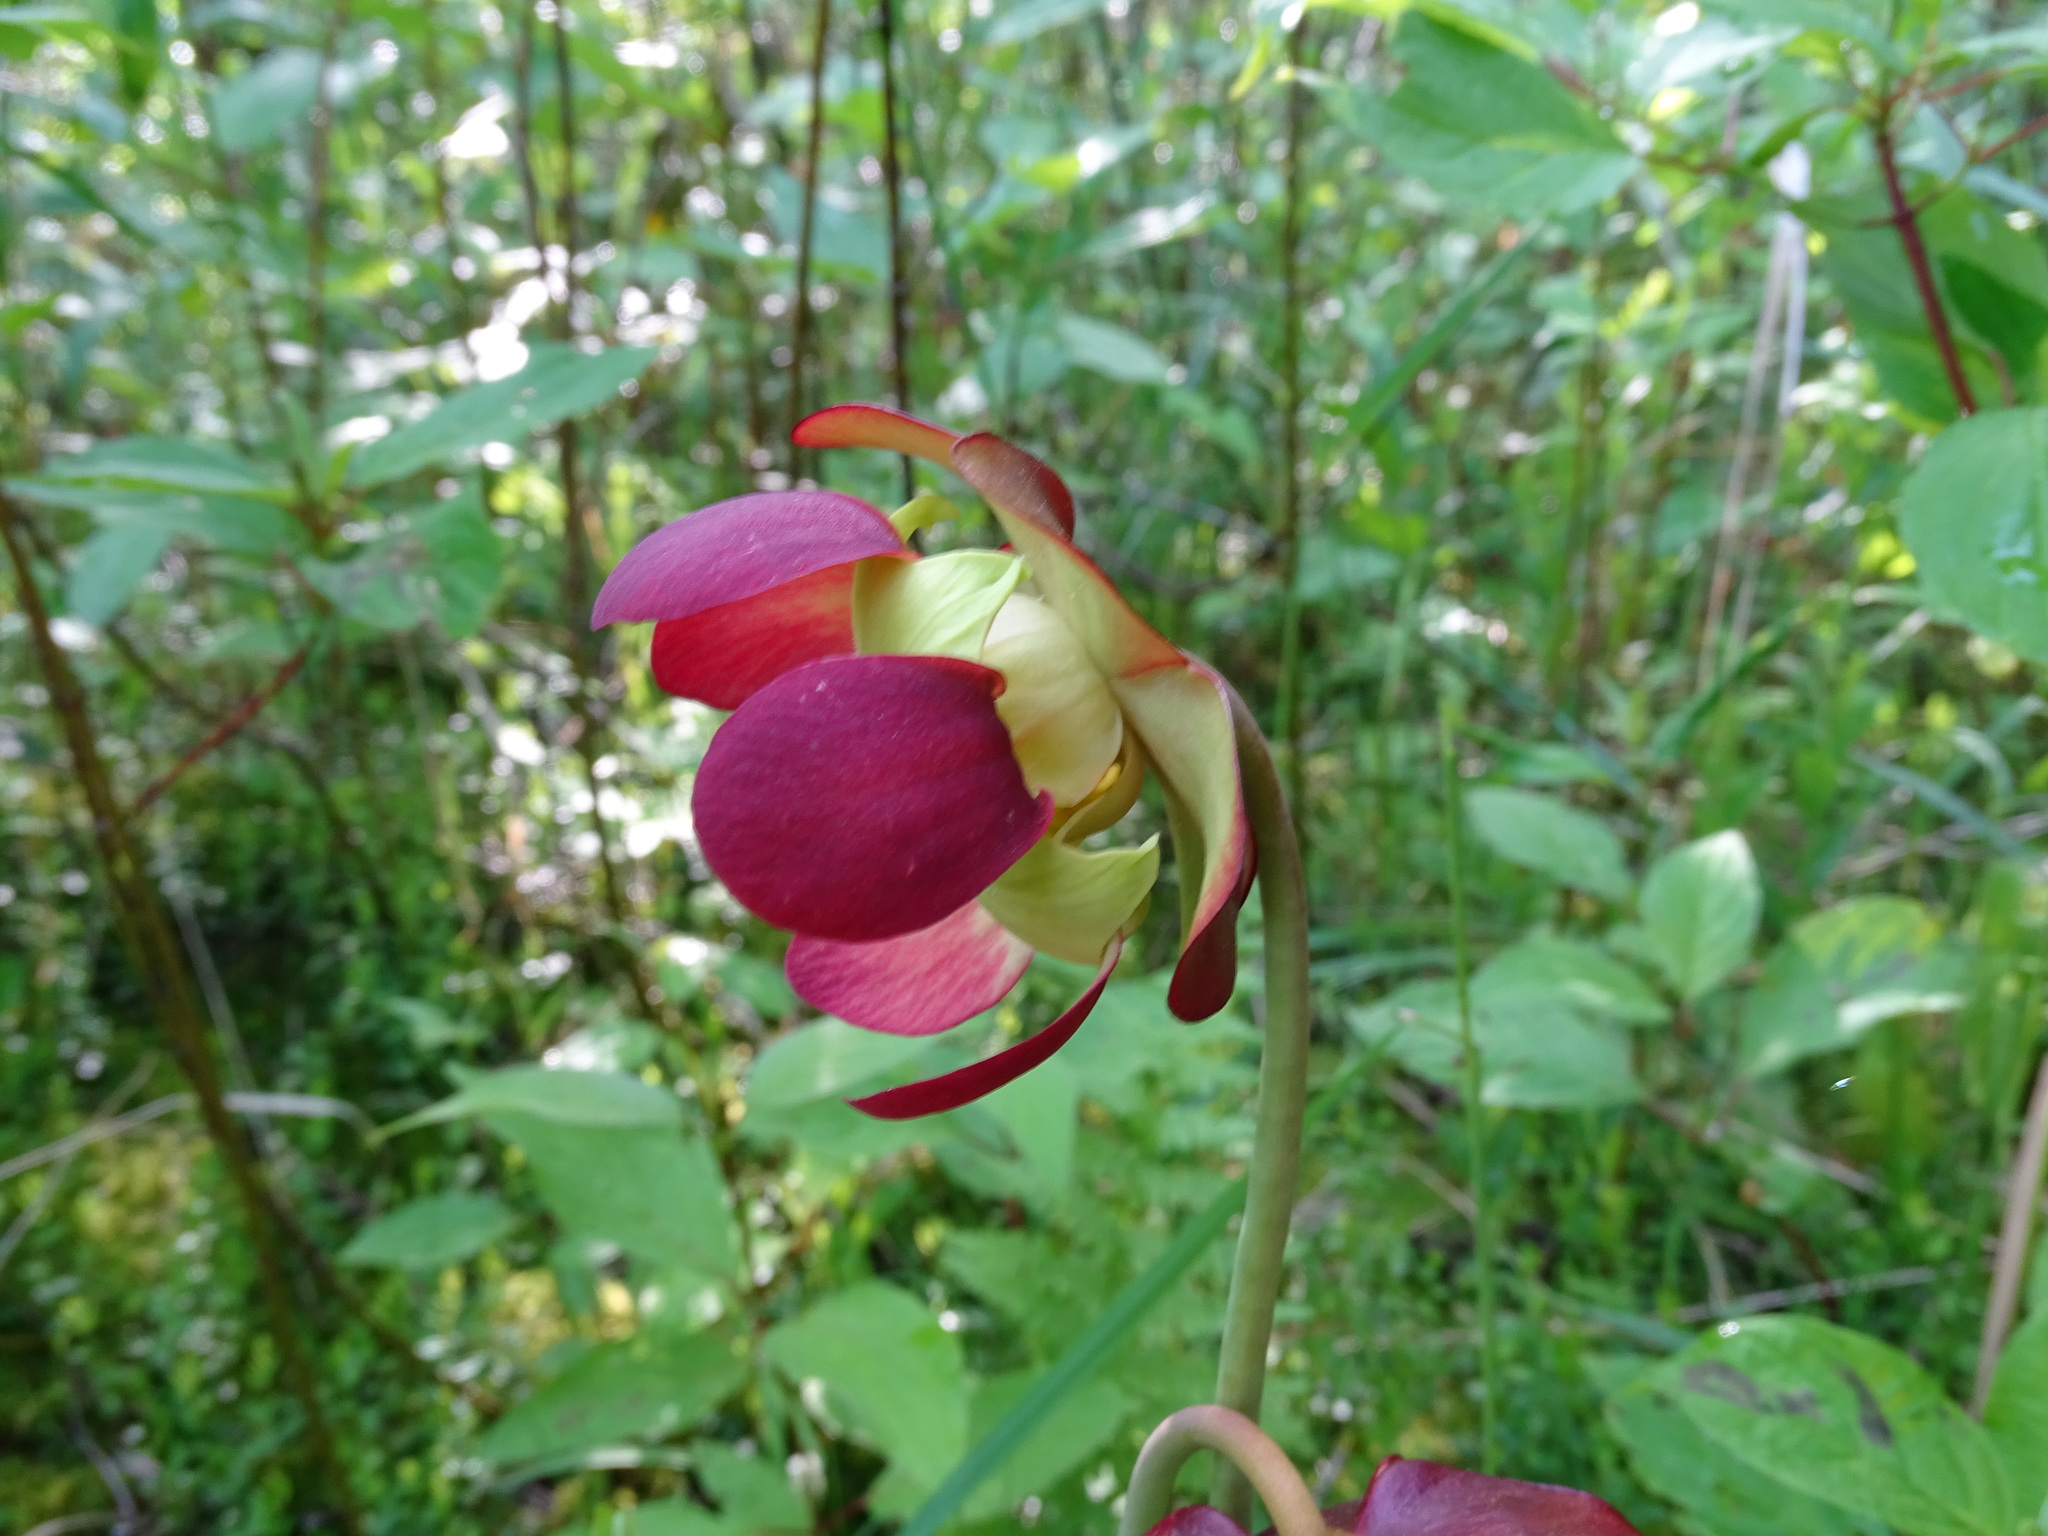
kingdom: Plantae
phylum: Tracheophyta
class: Magnoliopsida
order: Ericales
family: Sarraceniaceae
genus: Sarracenia
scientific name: Sarracenia purpurea
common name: Pitcherplant
